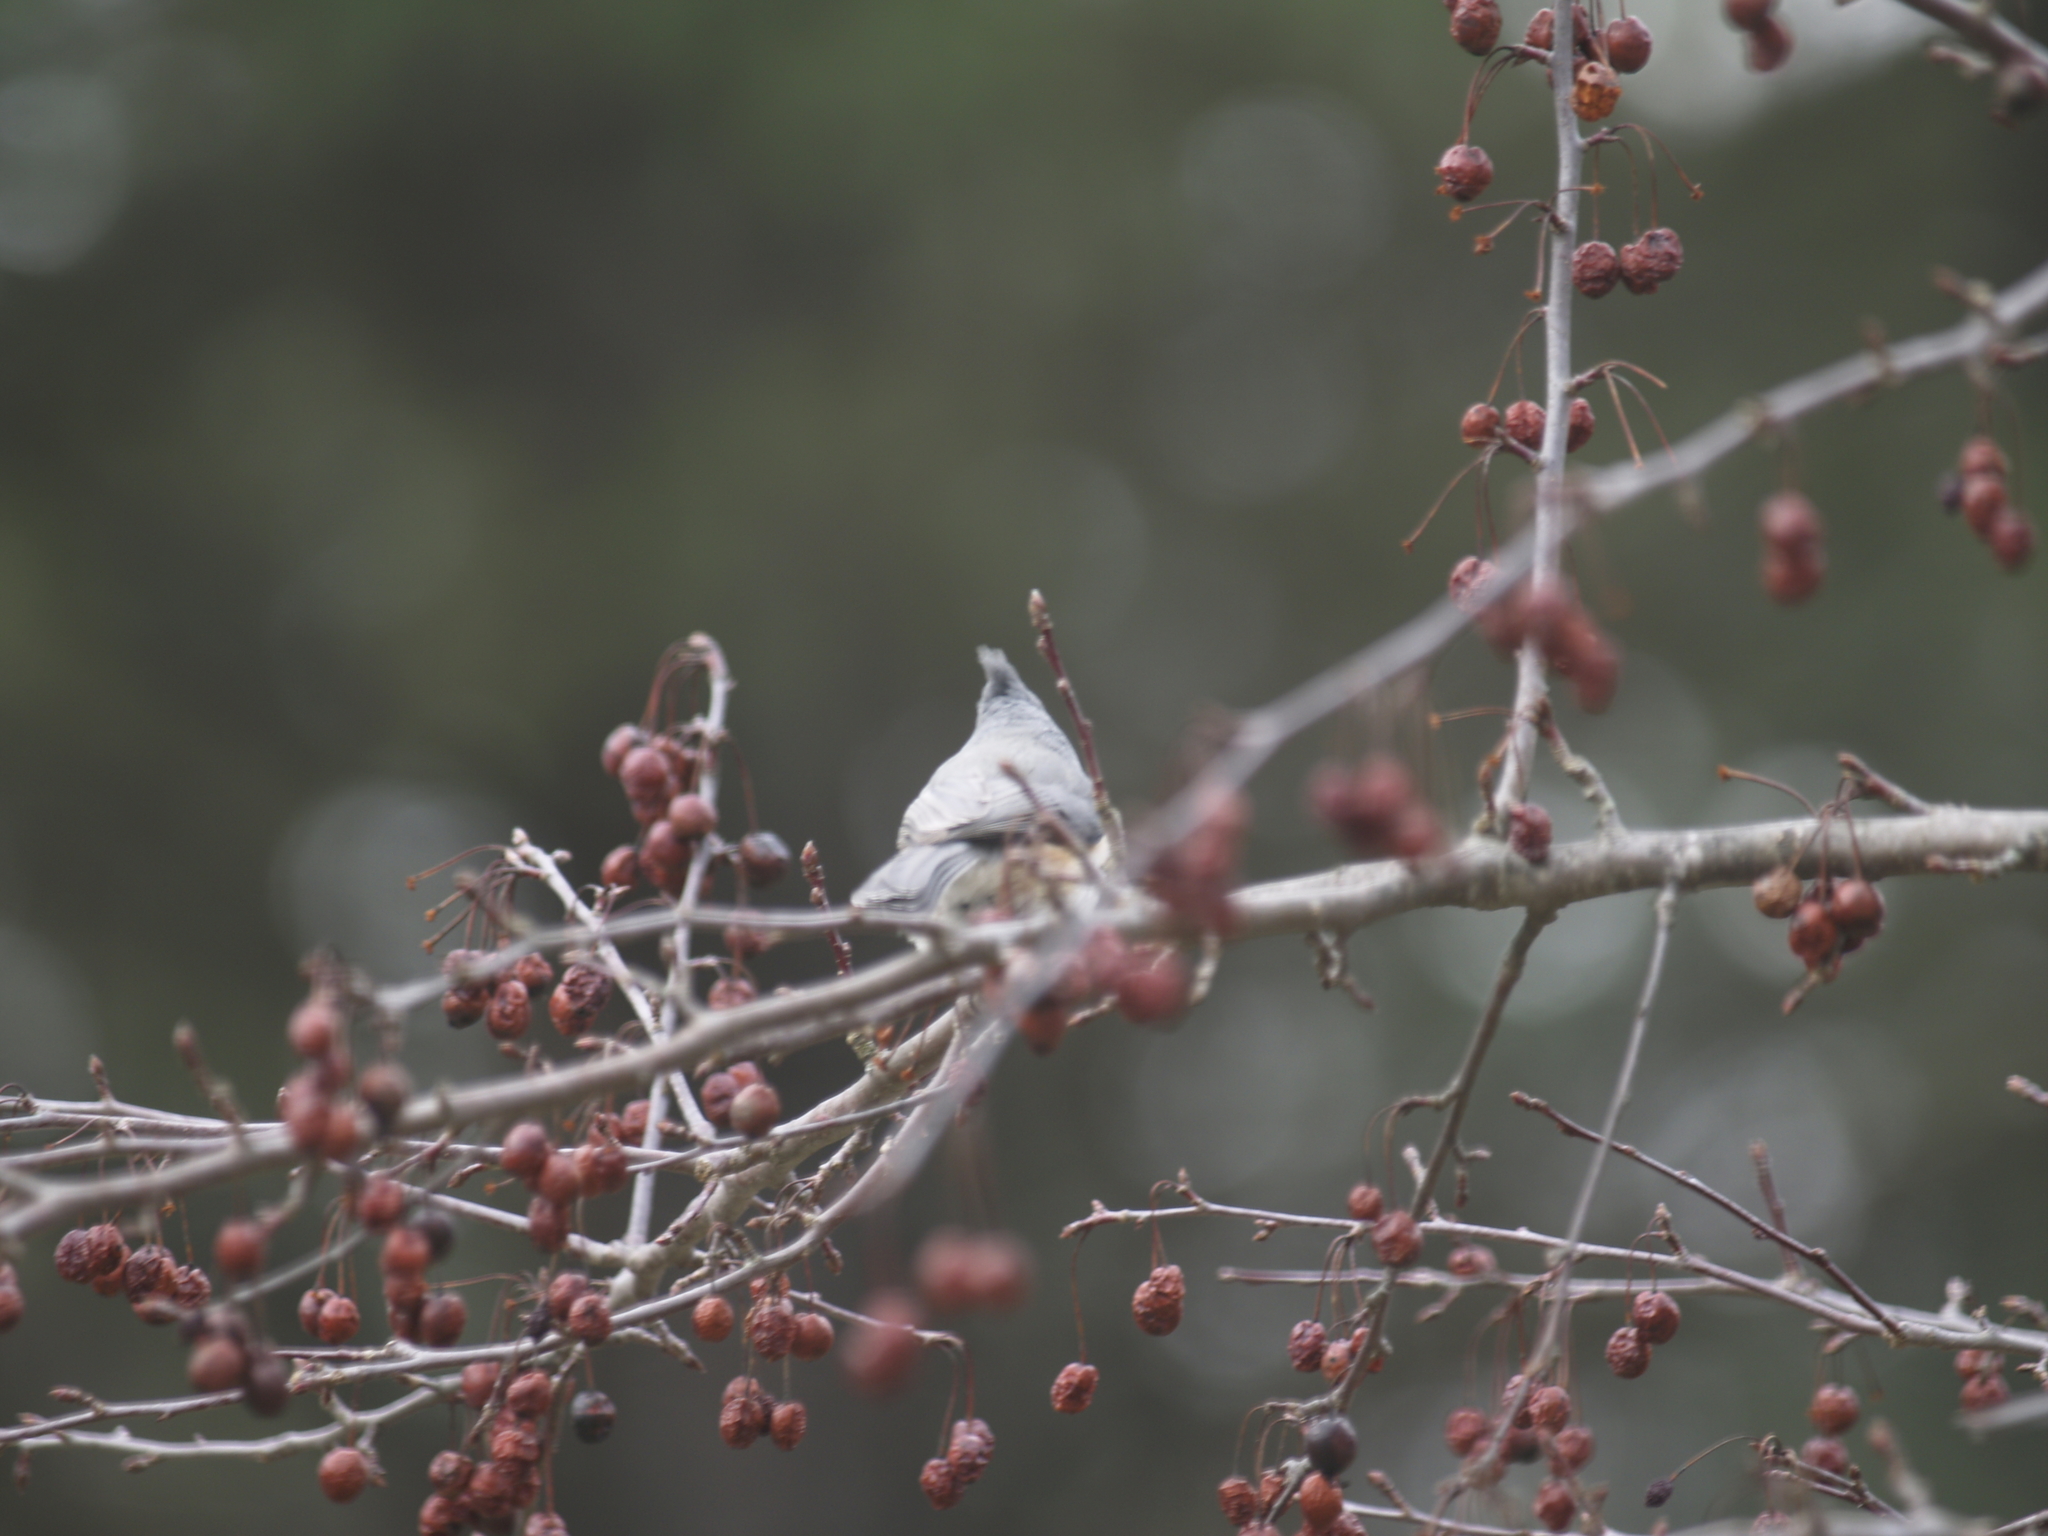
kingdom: Animalia
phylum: Chordata
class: Aves
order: Passeriformes
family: Paridae
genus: Baeolophus
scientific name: Baeolophus bicolor
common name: Tufted titmouse
